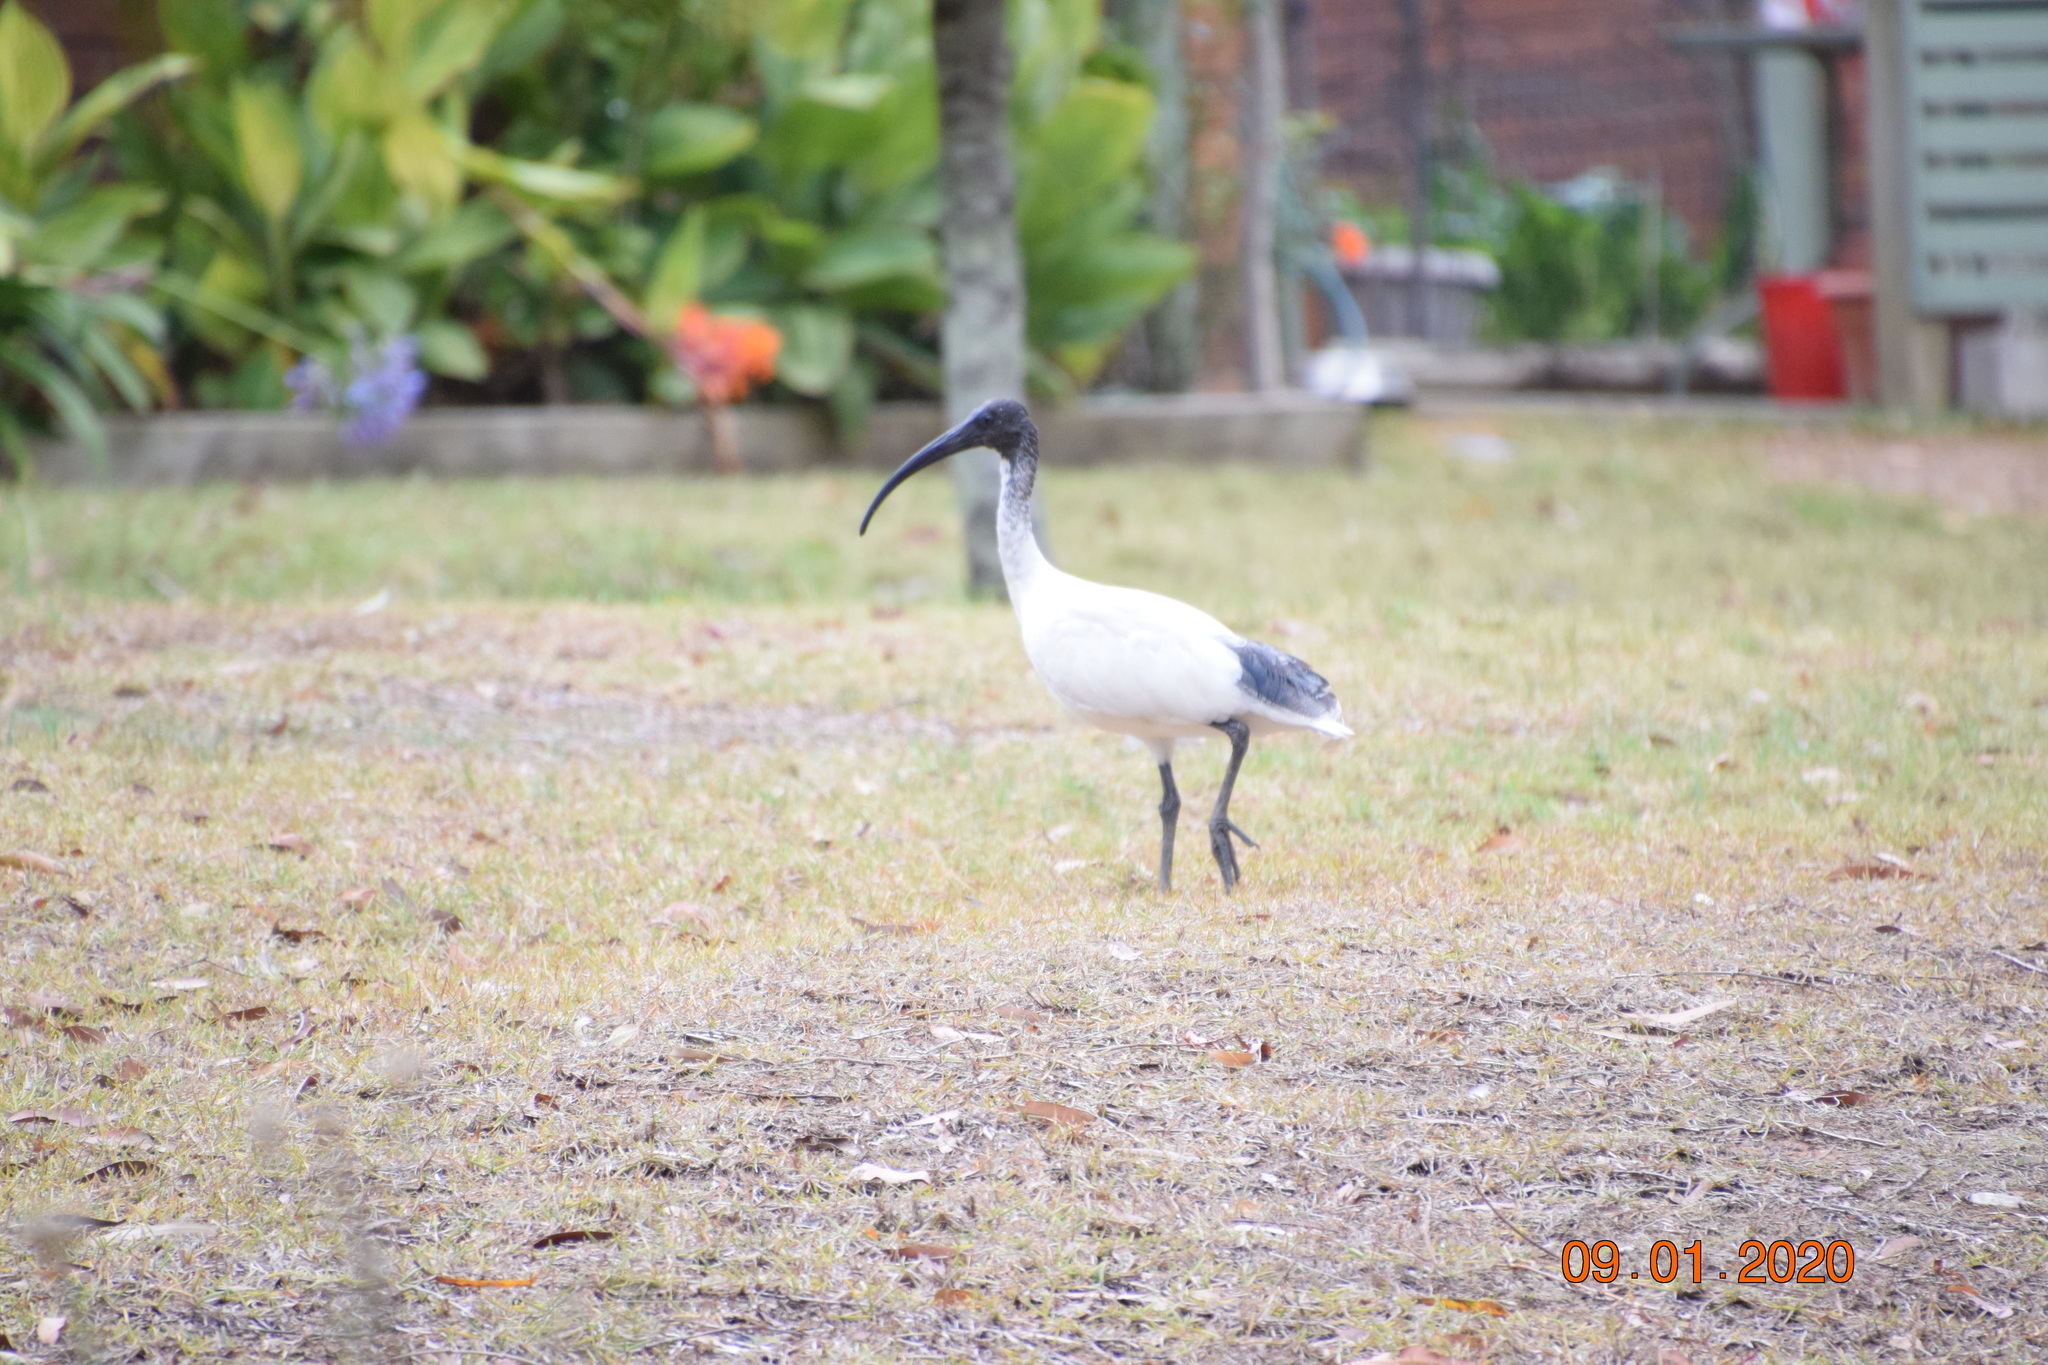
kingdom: Animalia
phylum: Chordata
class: Aves
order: Pelecaniformes
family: Threskiornithidae
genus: Threskiornis
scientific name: Threskiornis molucca
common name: Australian white ibis
